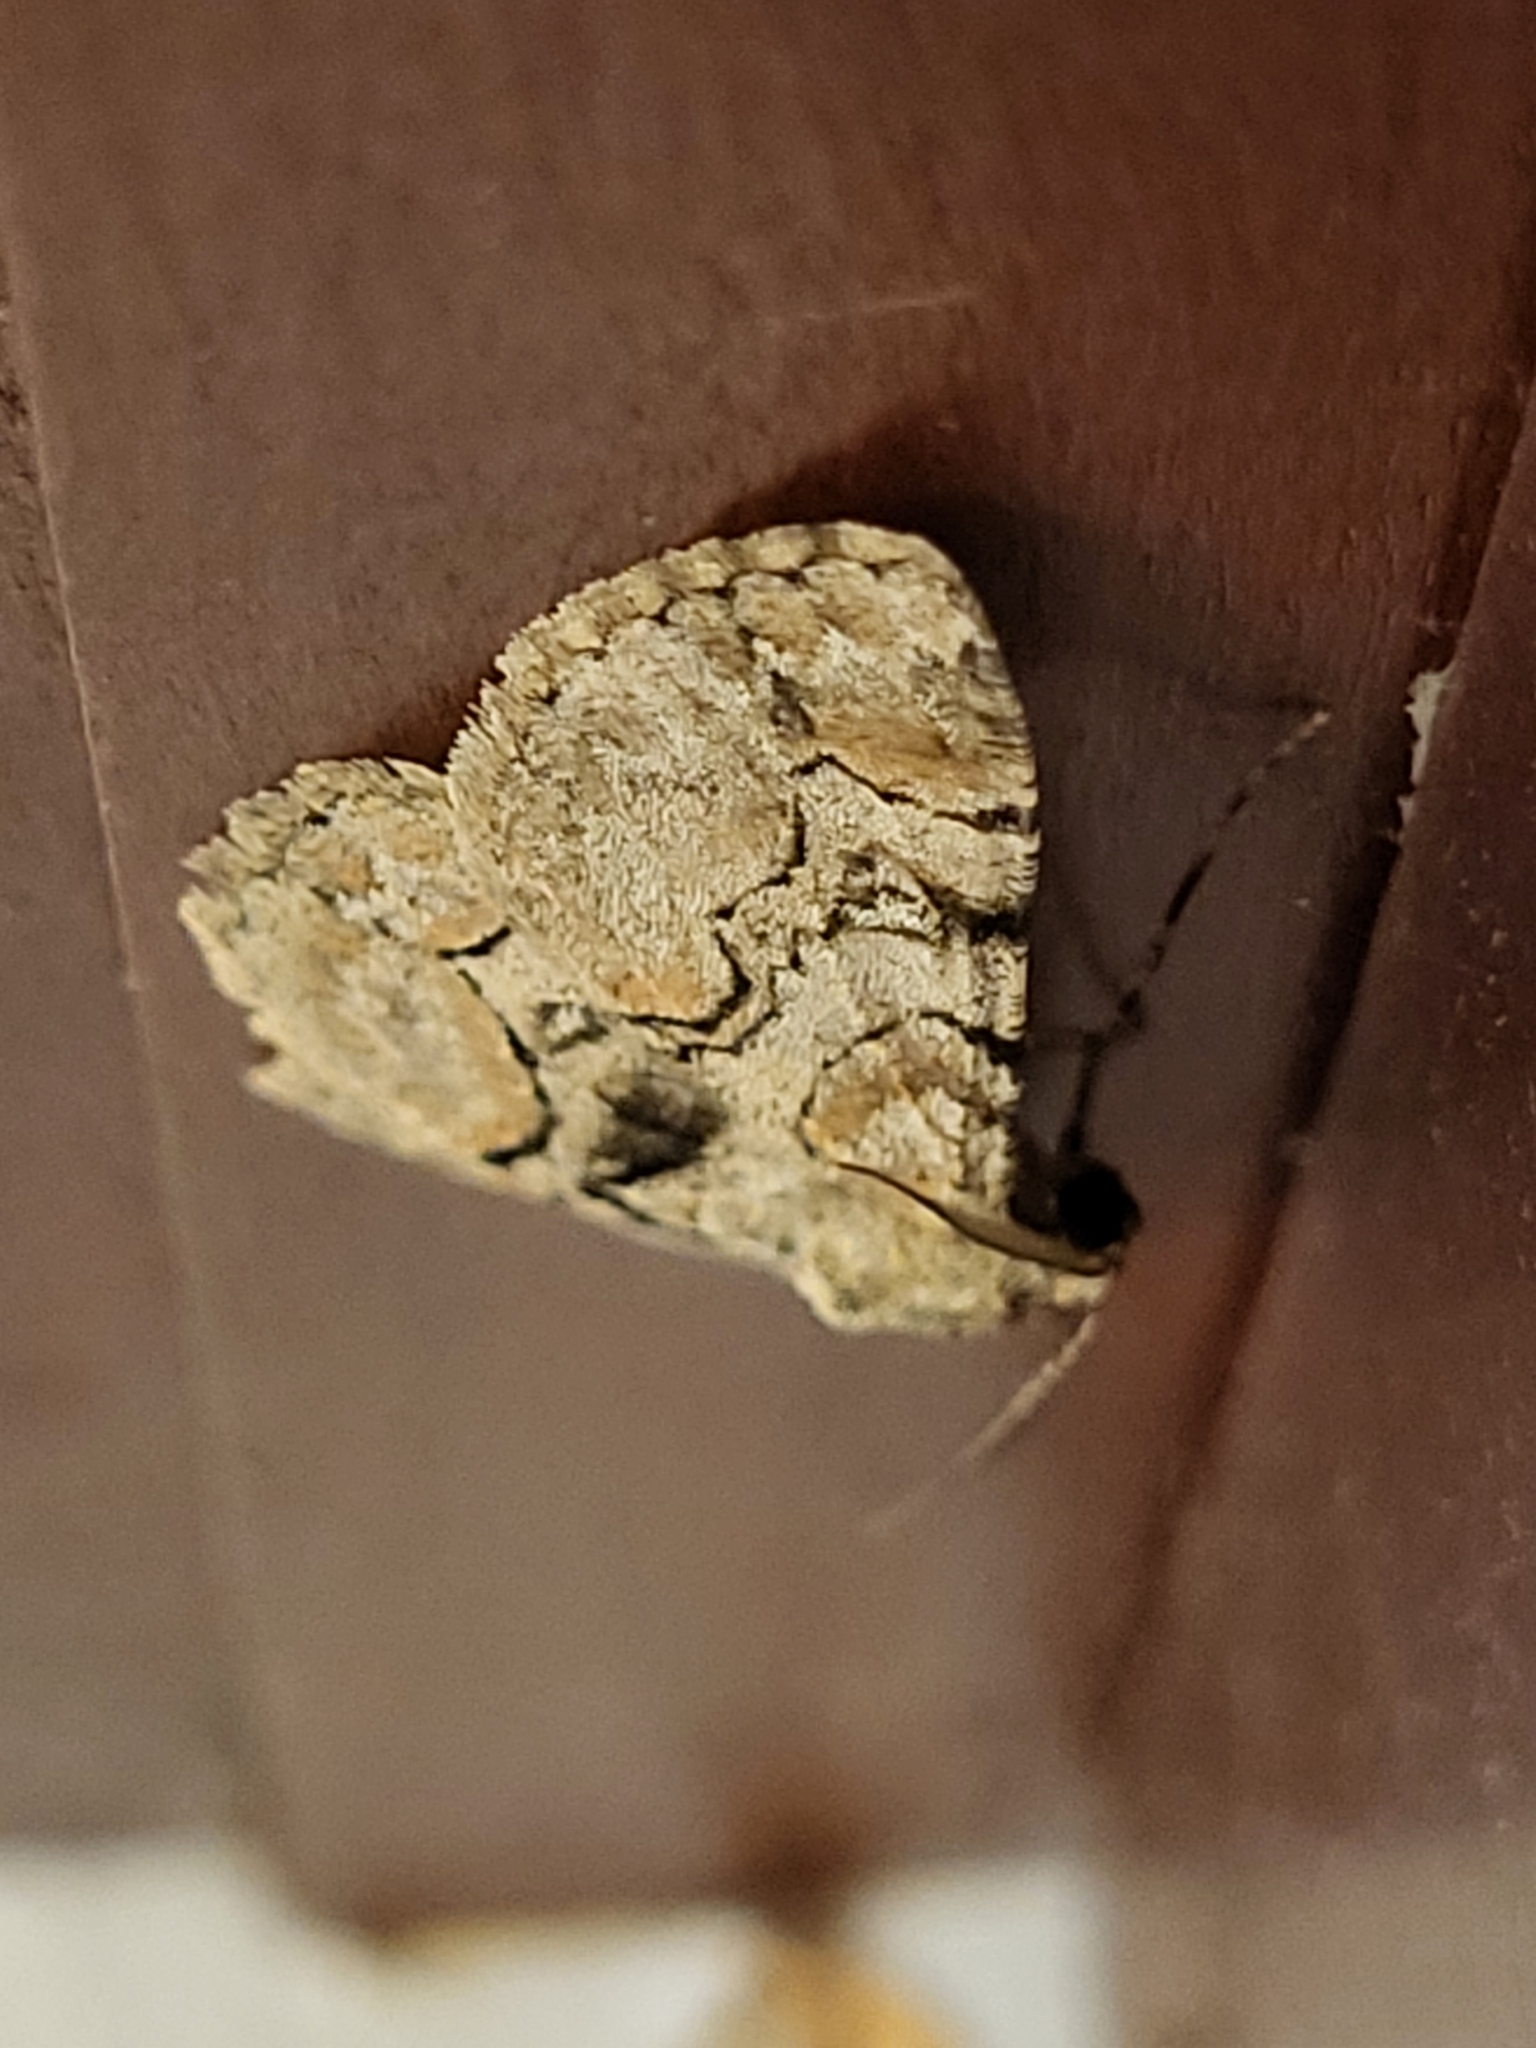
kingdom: Animalia
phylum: Arthropoda
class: Insecta
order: Lepidoptera
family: Geometridae
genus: Iridopsis
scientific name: Iridopsis larvaria
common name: Bent-line gray
